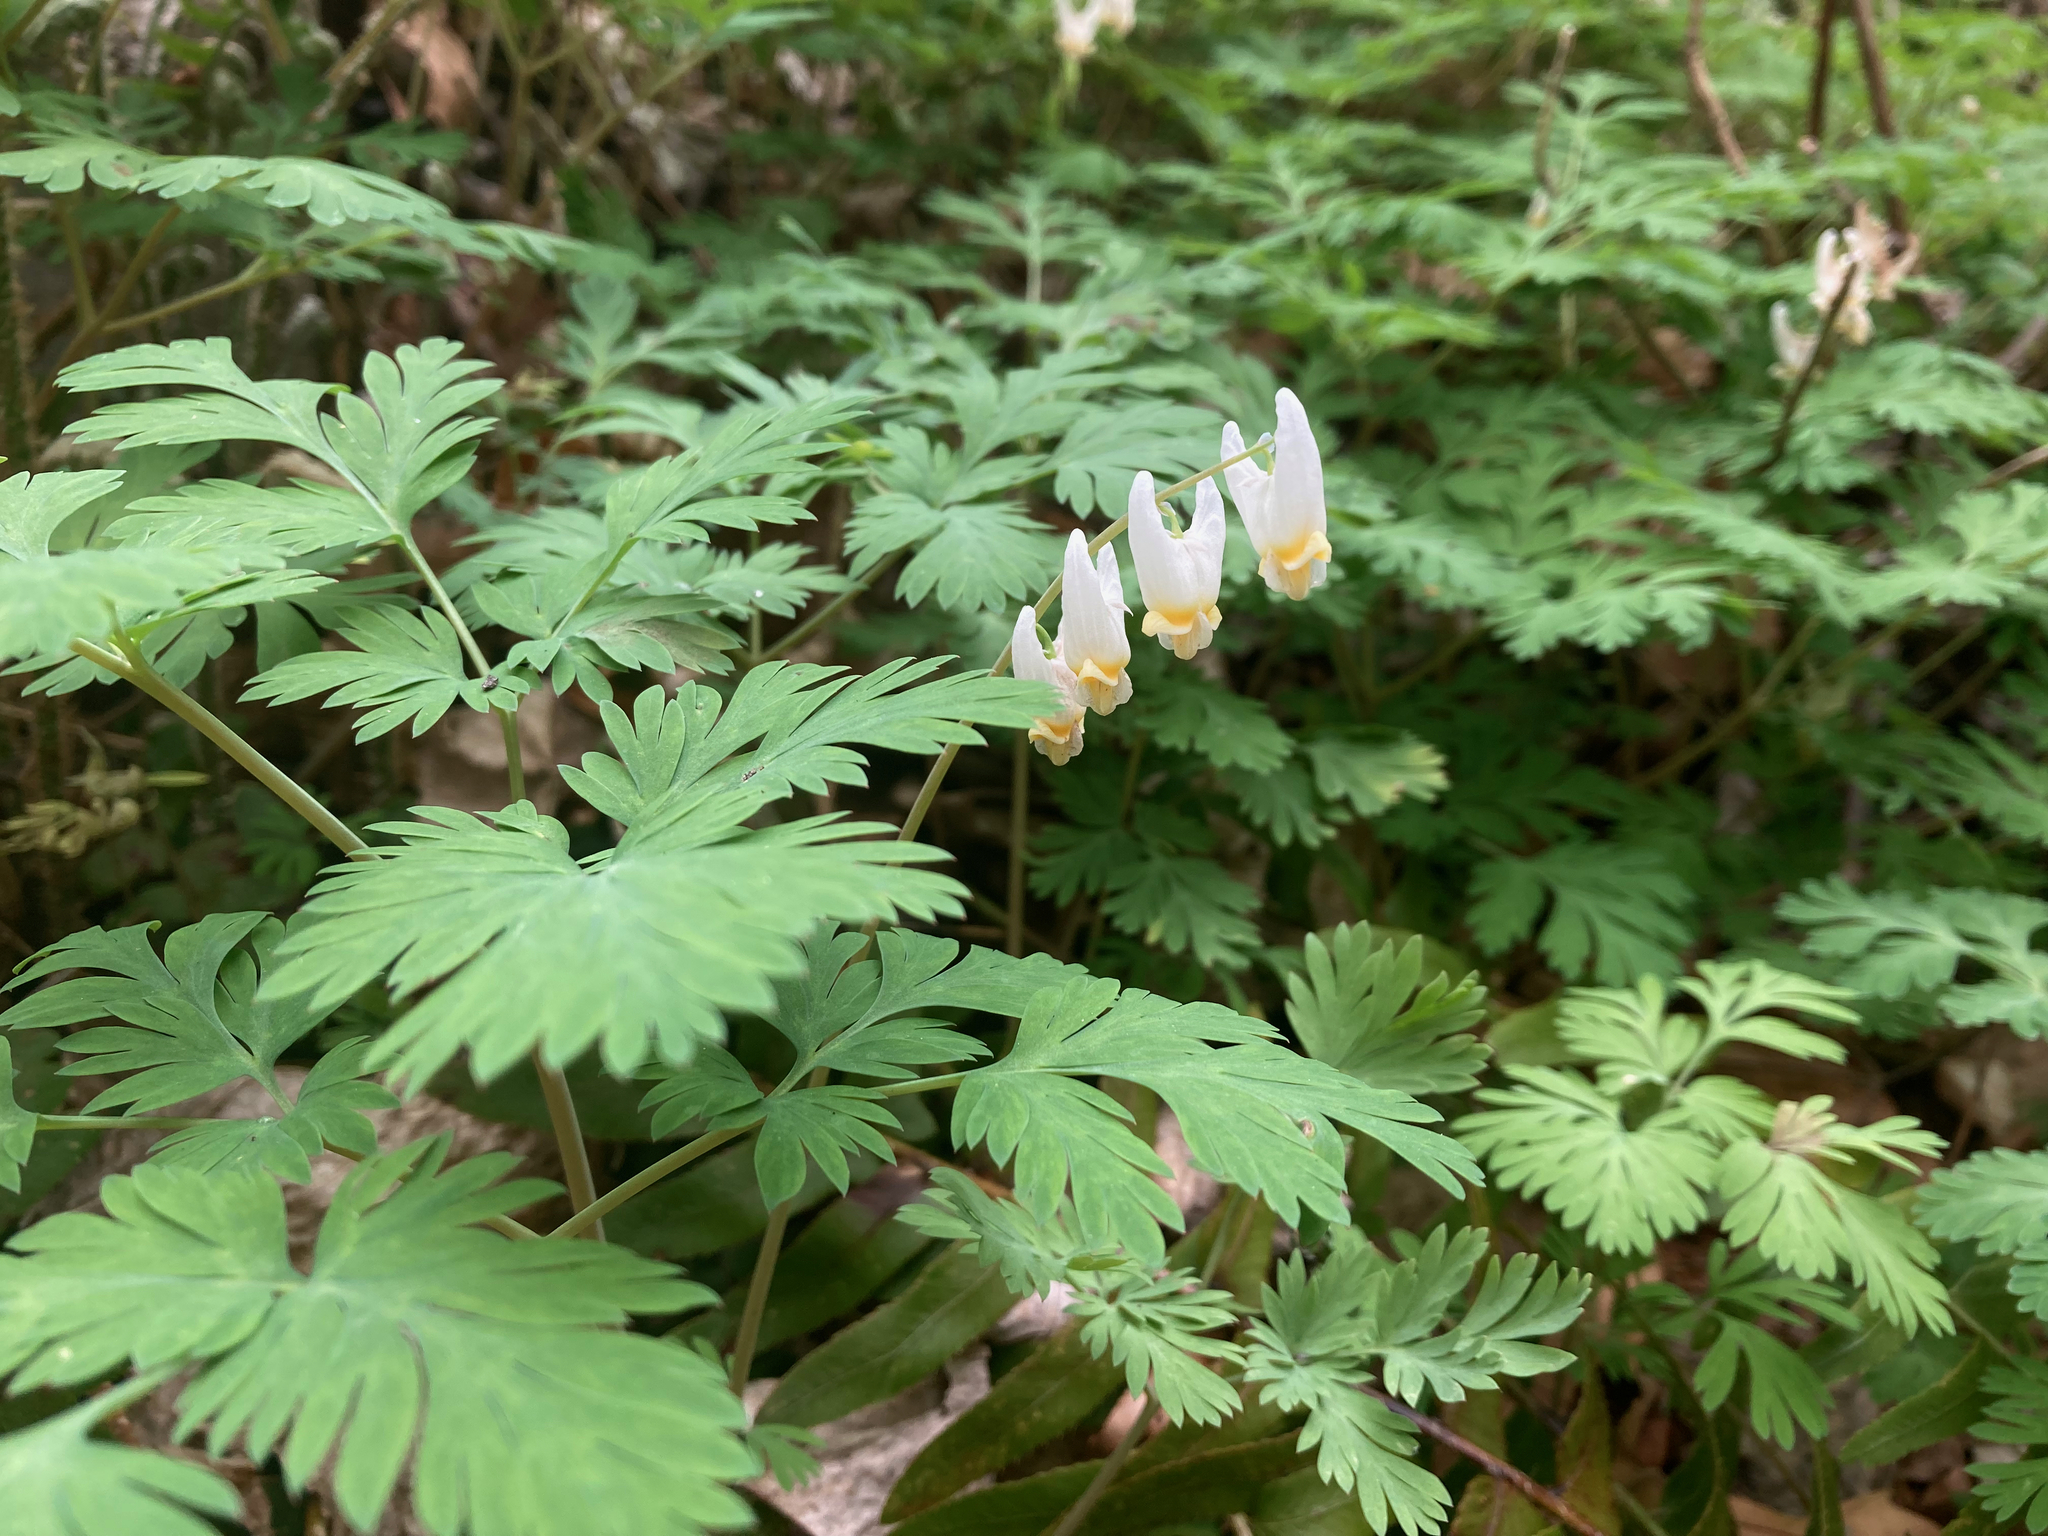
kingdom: Plantae
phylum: Tracheophyta
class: Magnoliopsida
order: Ranunculales
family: Papaveraceae
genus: Dicentra
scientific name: Dicentra cucullaria
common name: Dutchman's breeches
